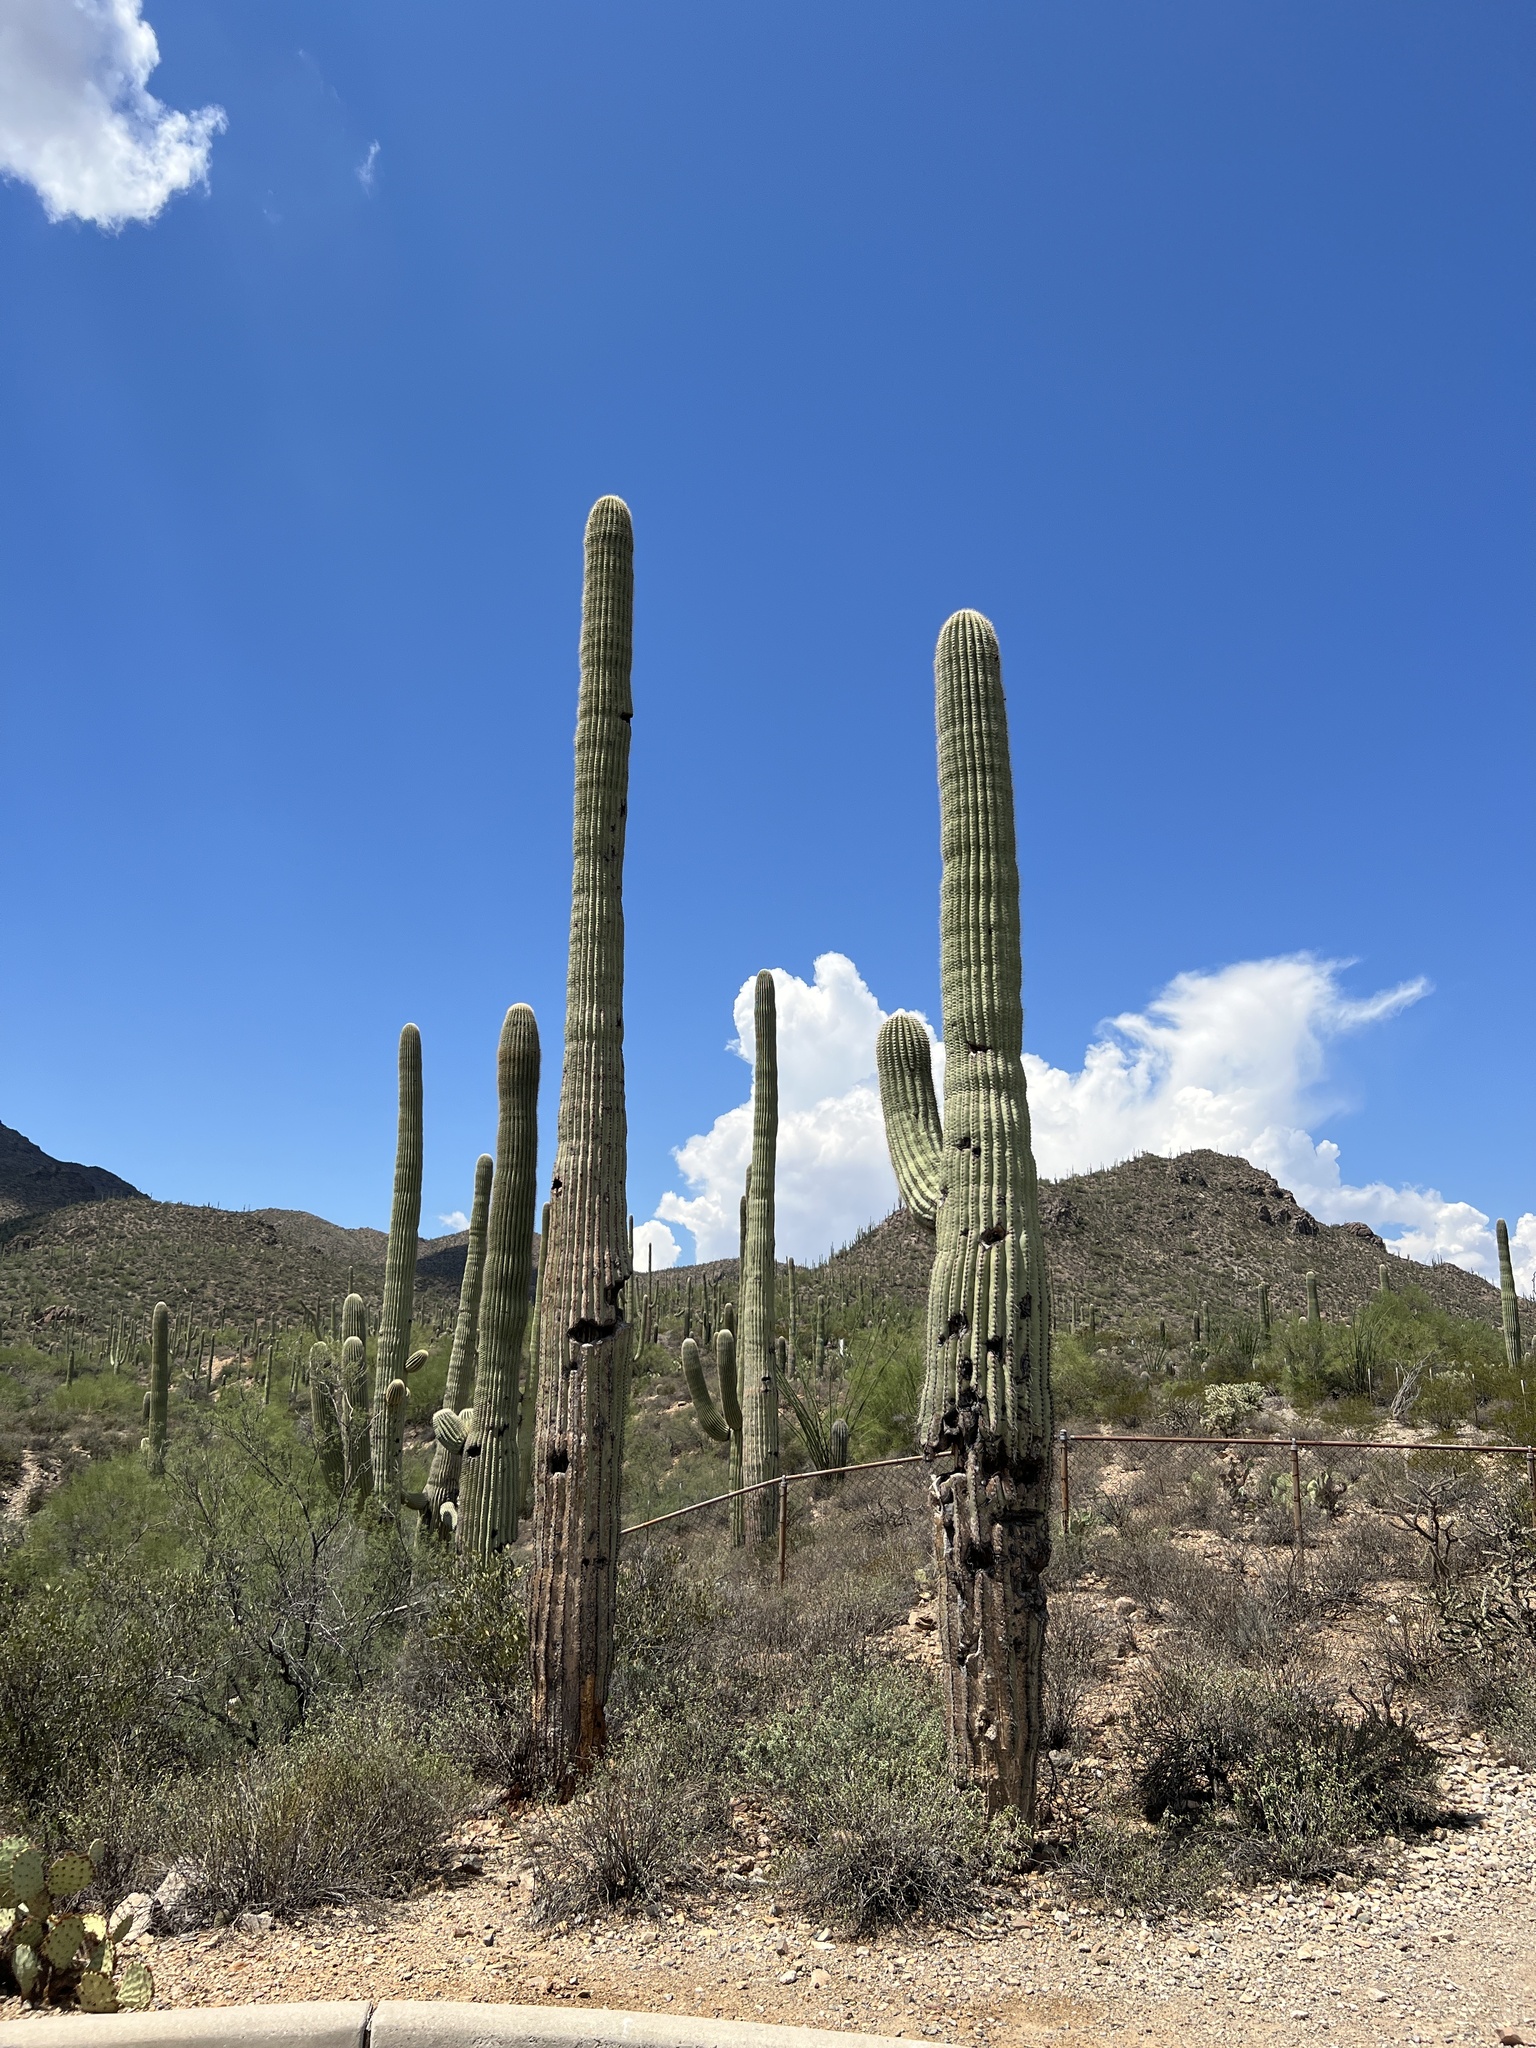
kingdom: Plantae
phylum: Tracheophyta
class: Magnoliopsida
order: Caryophyllales
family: Cactaceae
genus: Carnegiea
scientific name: Carnegiea gigantea
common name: Saguaro
